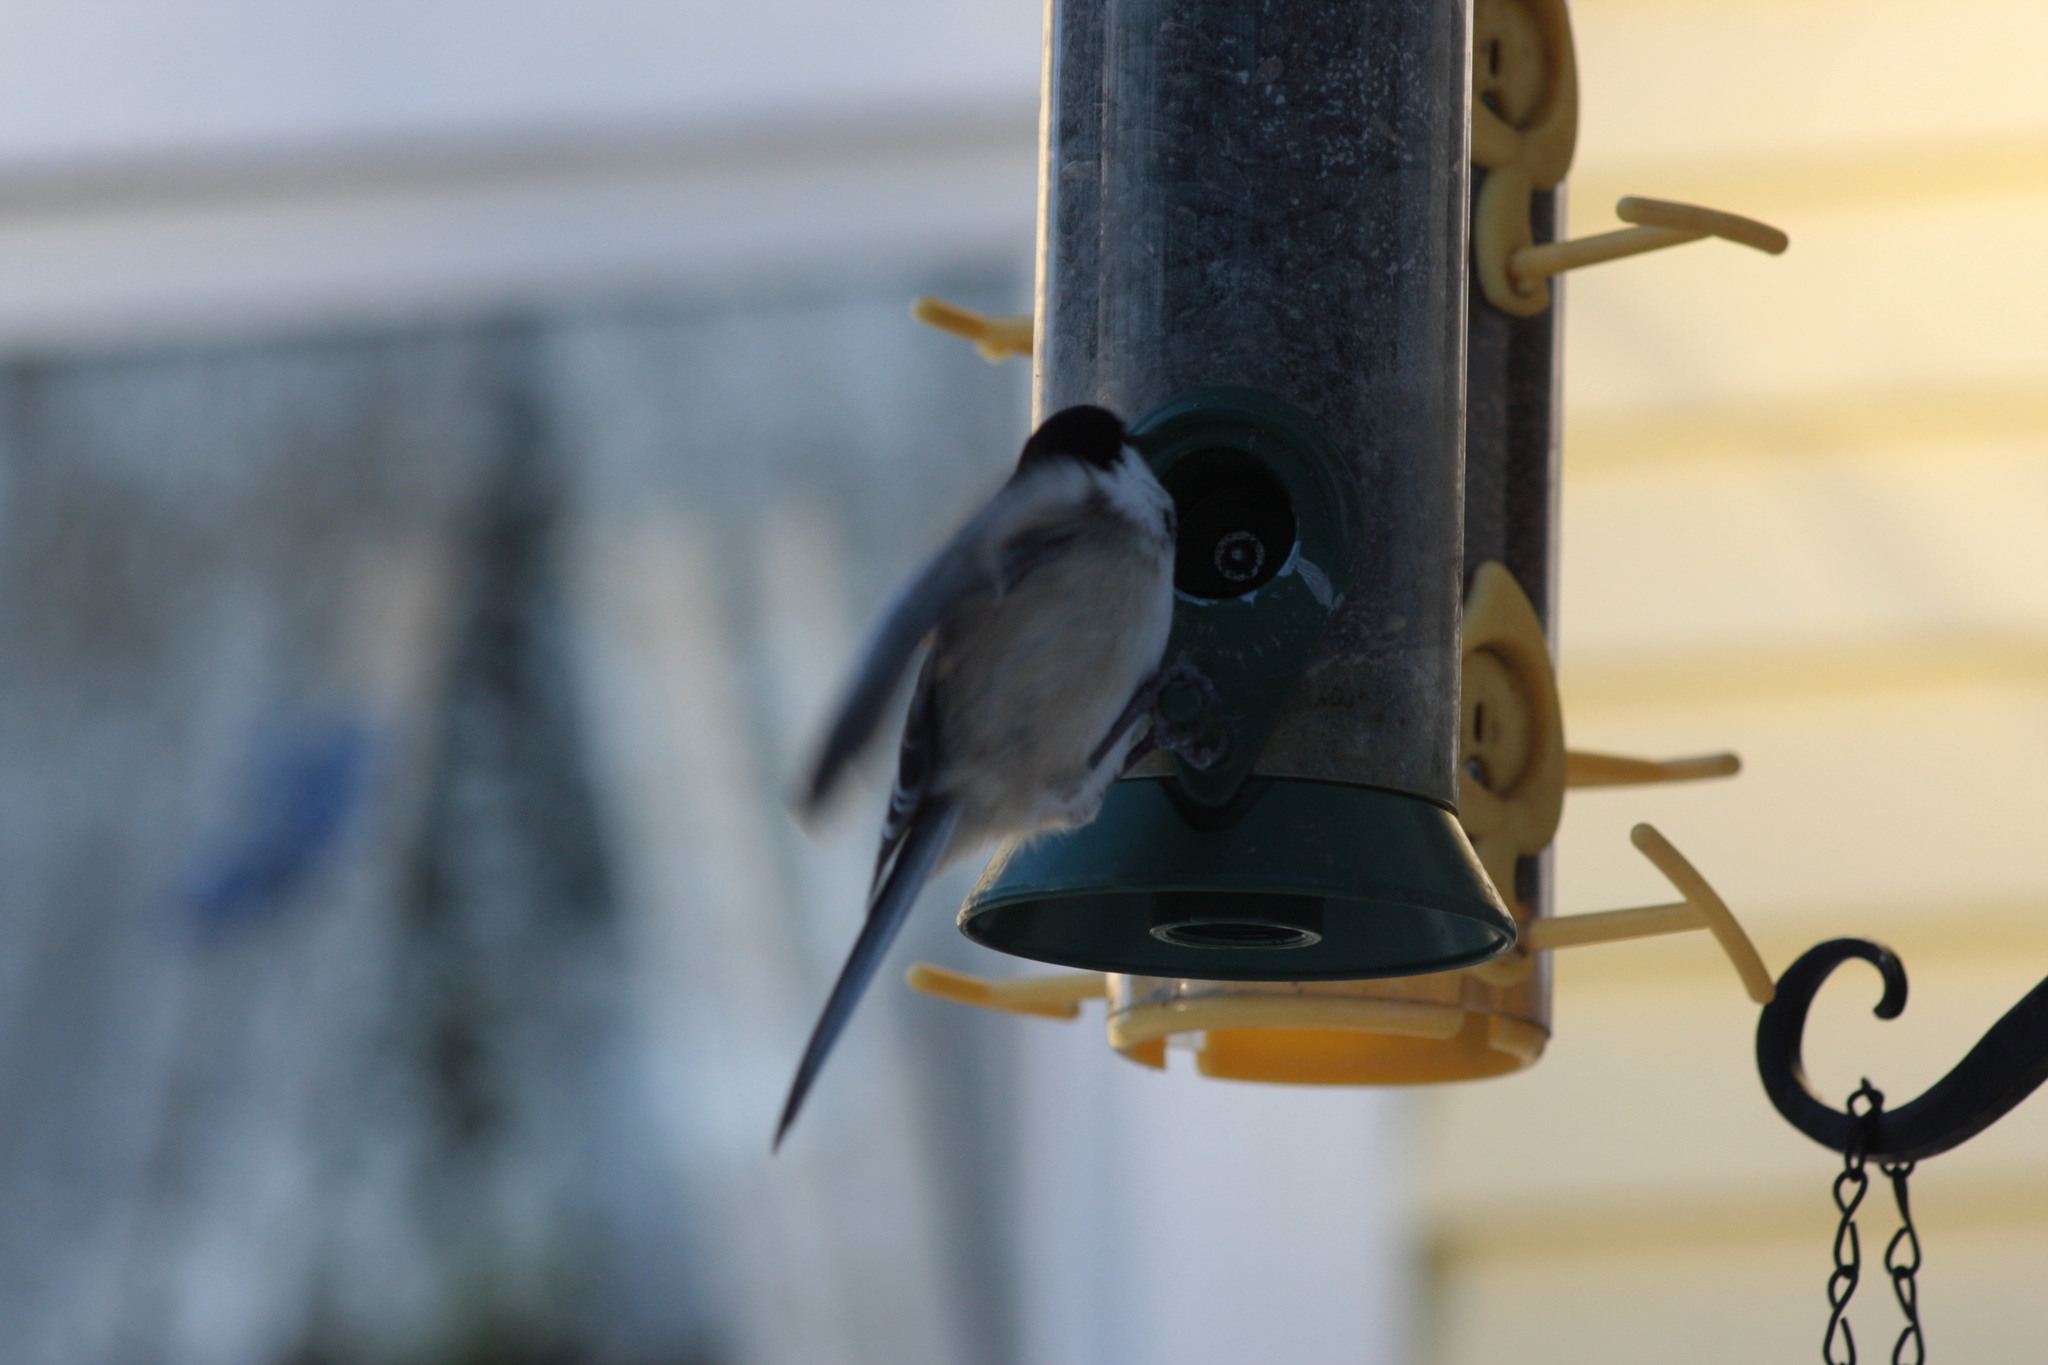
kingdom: Animalia
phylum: Chordata
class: Aves
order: Passeriformes
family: Paridae
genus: Poecile
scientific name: Poecile atricapillus
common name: Black-capped chickadee
